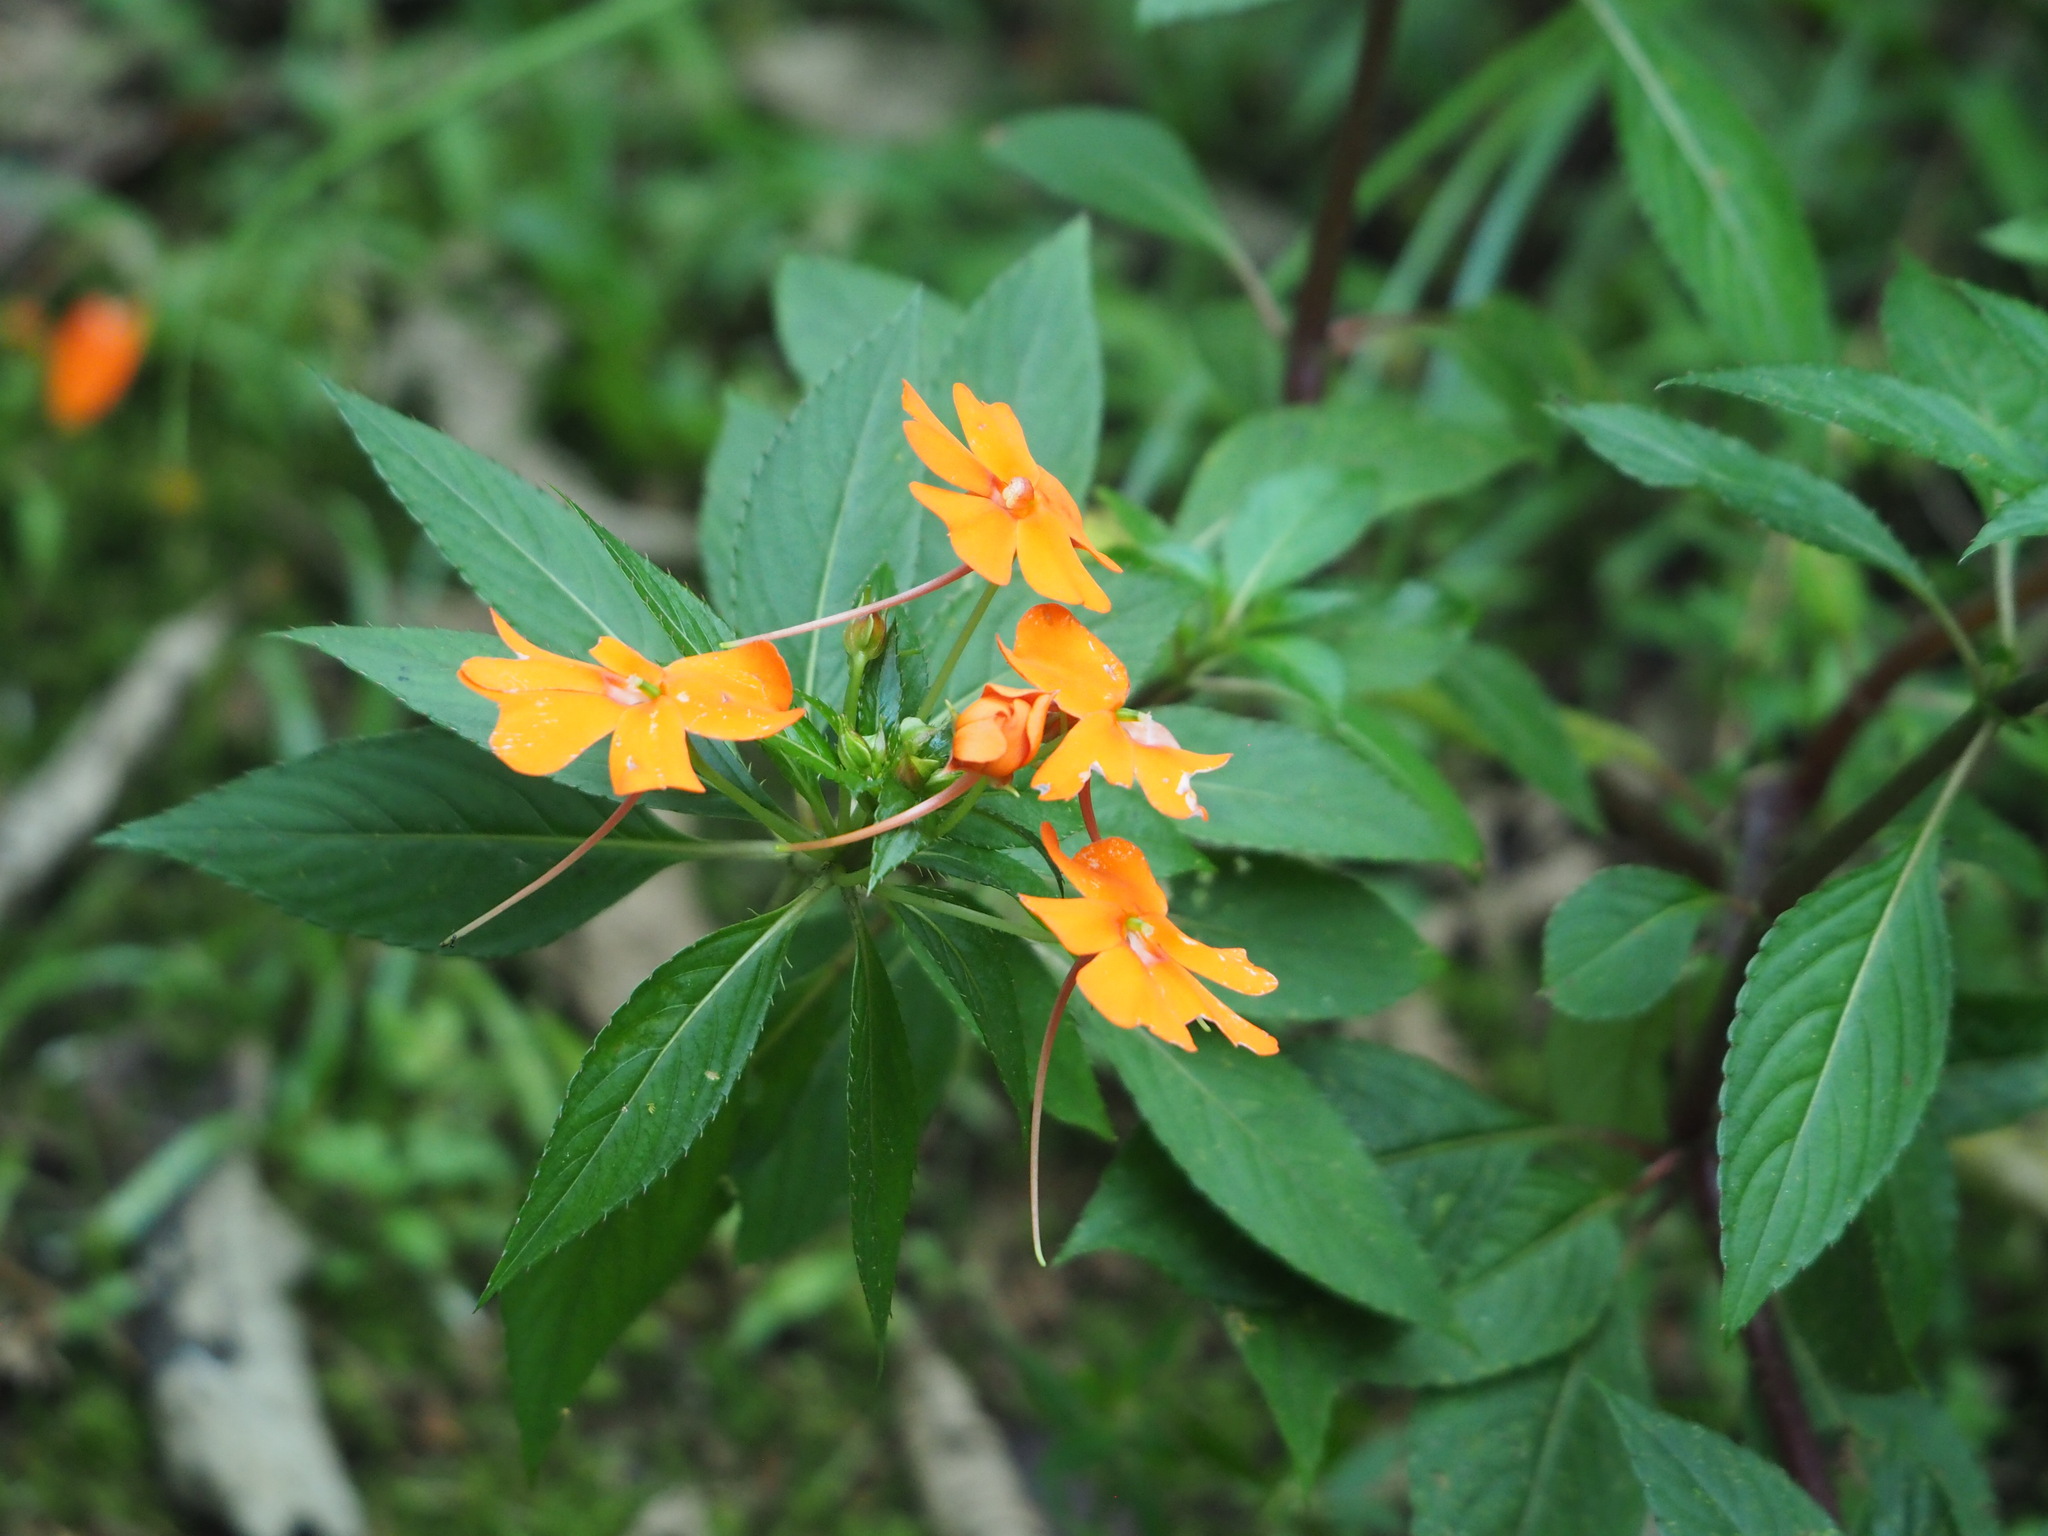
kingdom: Plantae
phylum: Tracheophyta
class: Magnoliopsida
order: Ericales
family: Balsaminaceae
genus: Impatiens
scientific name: Impatiens hawkeri
